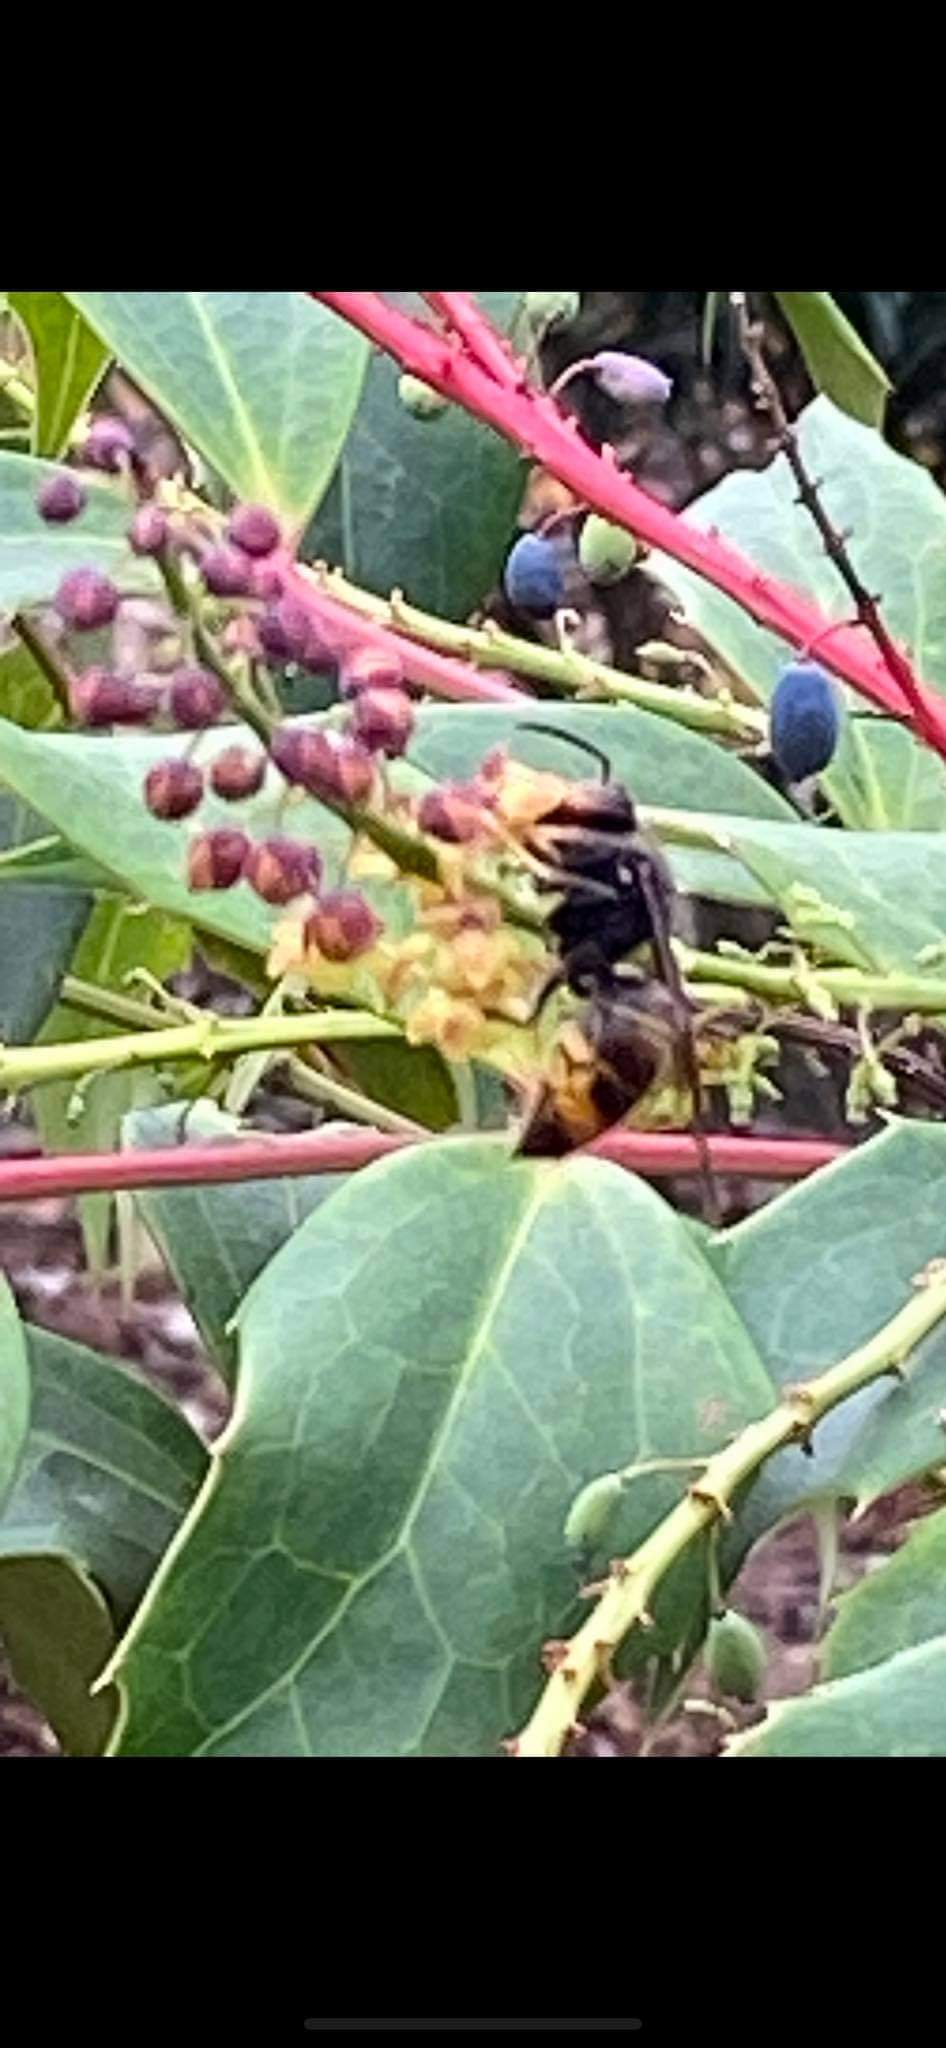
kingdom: Animalia
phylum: Arthropoda
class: Insecta
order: Hymenoptera
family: Vespidae
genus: Vespa
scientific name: Vespa velutina
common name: Asian hornet
